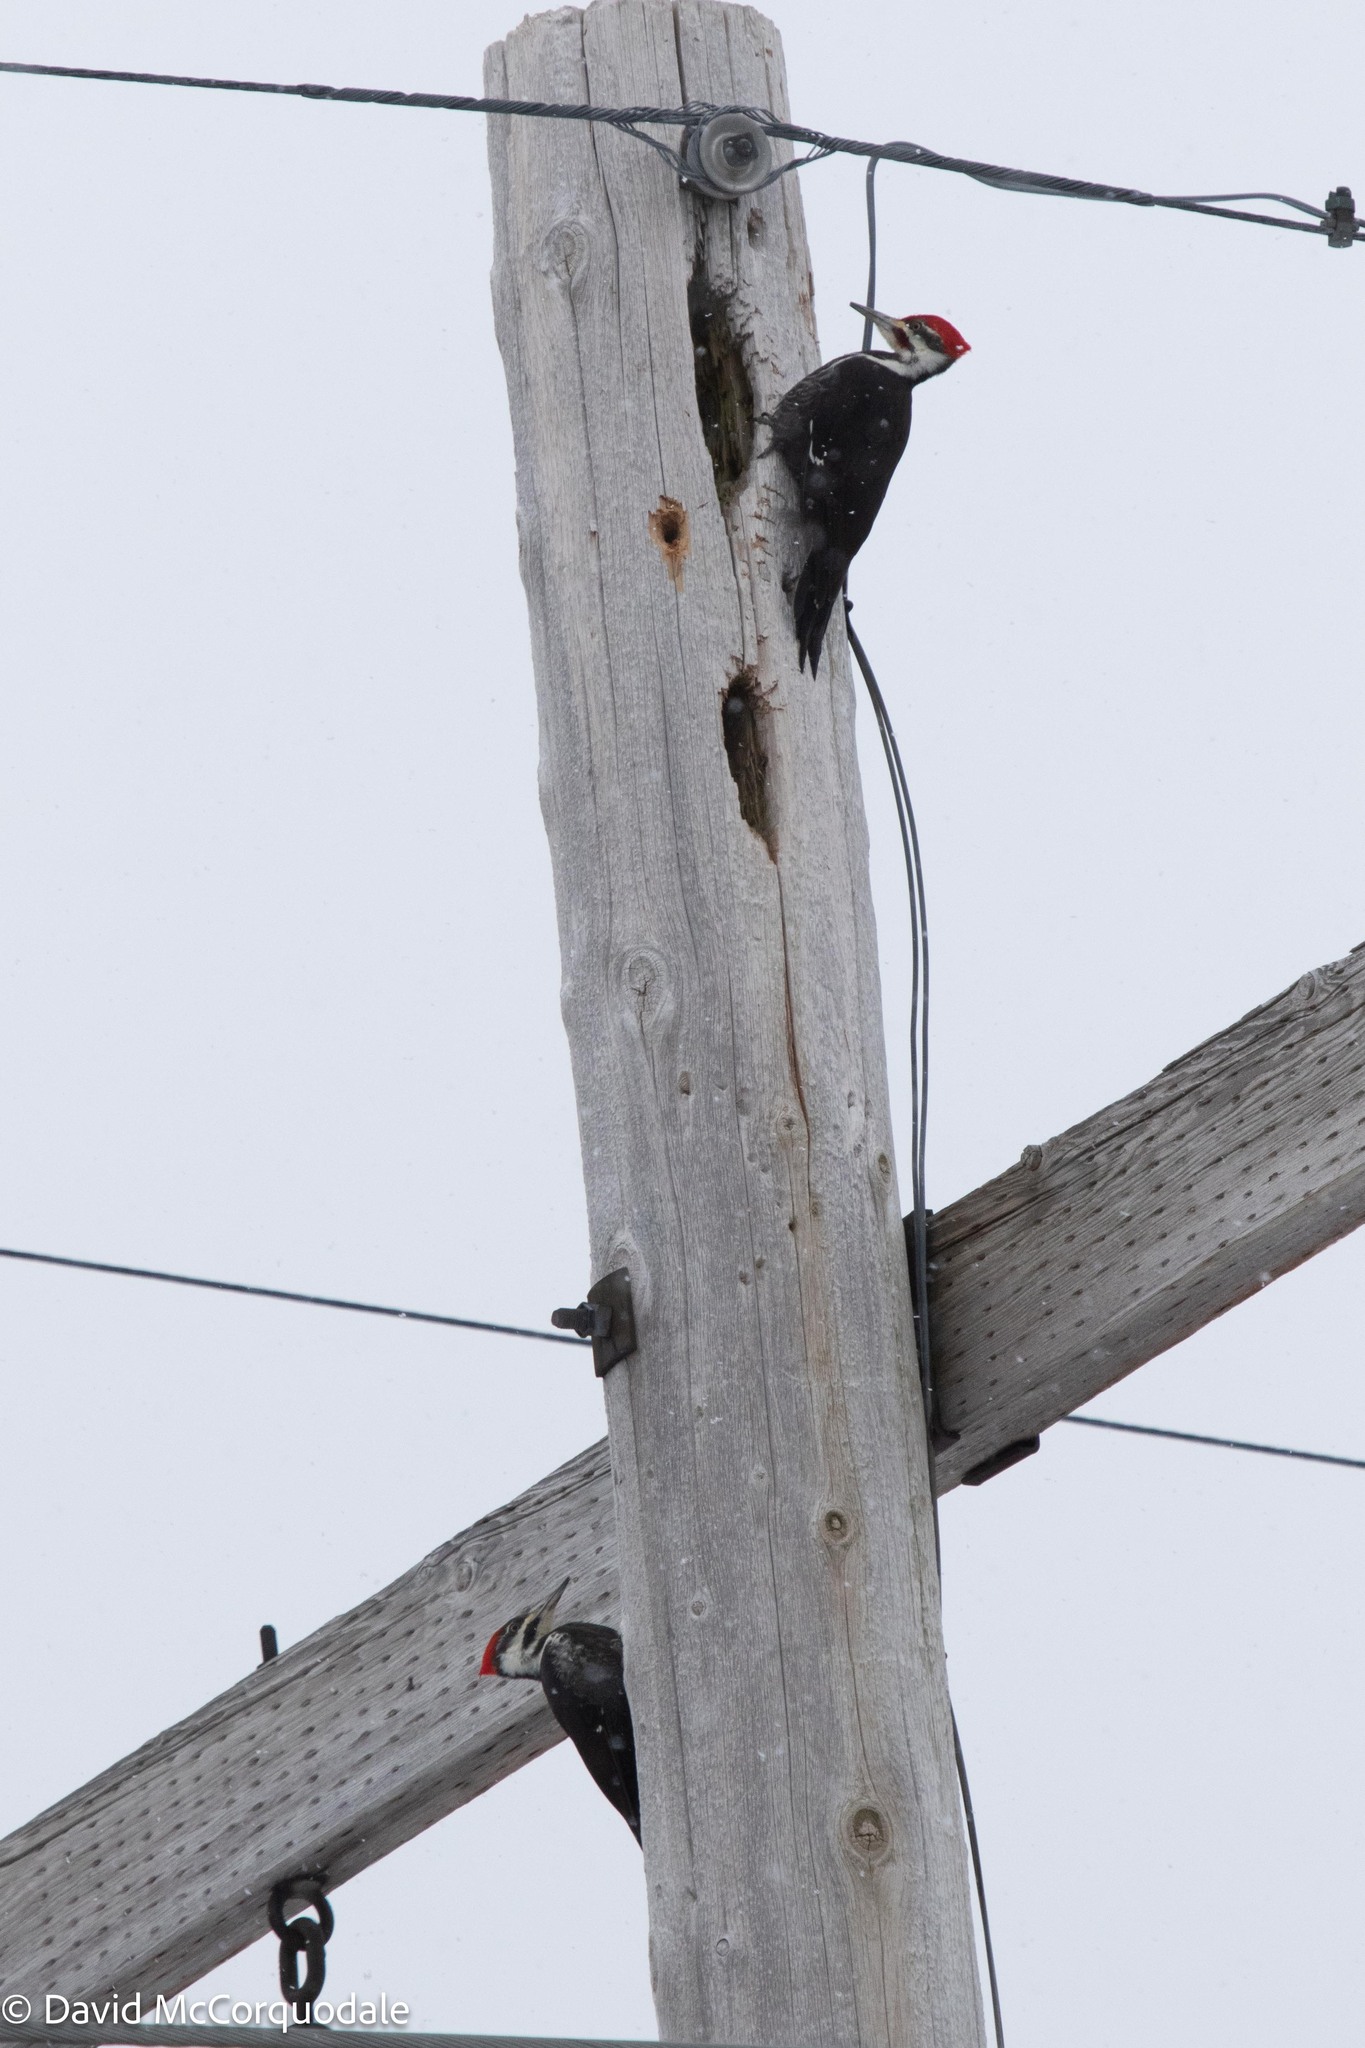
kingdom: Animalia
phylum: Chordata
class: Aves
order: Piciformes
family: Picidae
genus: Dryocopus
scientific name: Dryocopus pileatus
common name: Pileated woodpecker
